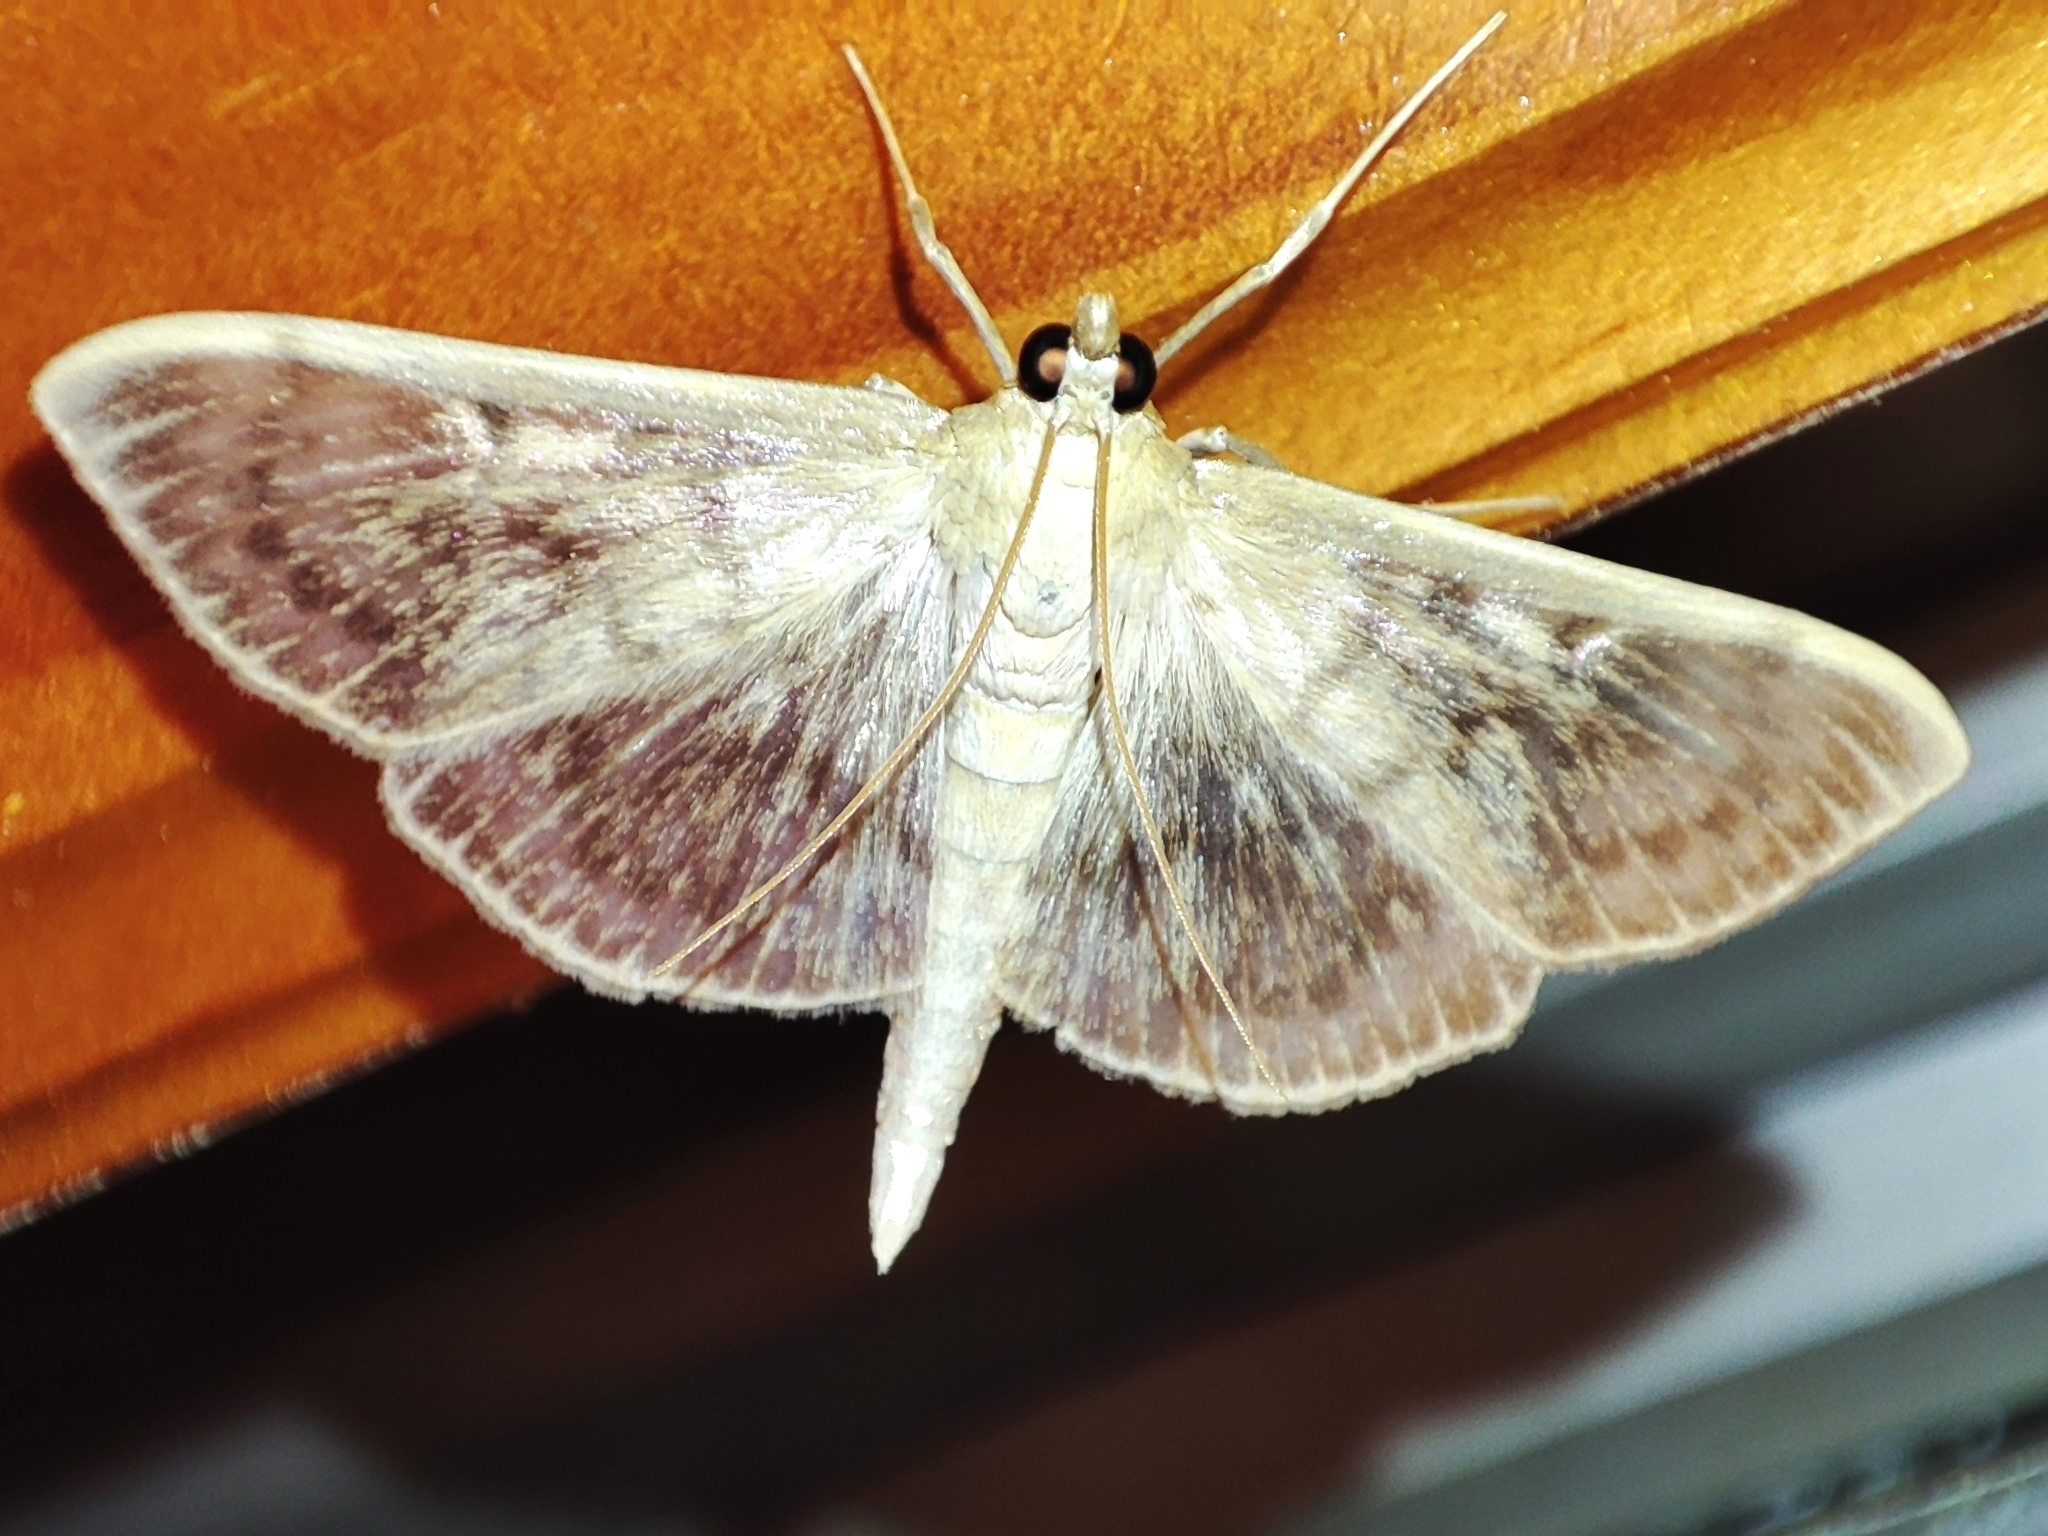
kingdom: Animalia
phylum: Arthropoda
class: Insecta
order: Lepidoptera
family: Crambidae
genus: Patania
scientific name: Patania ruralis
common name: Mother of pearl
